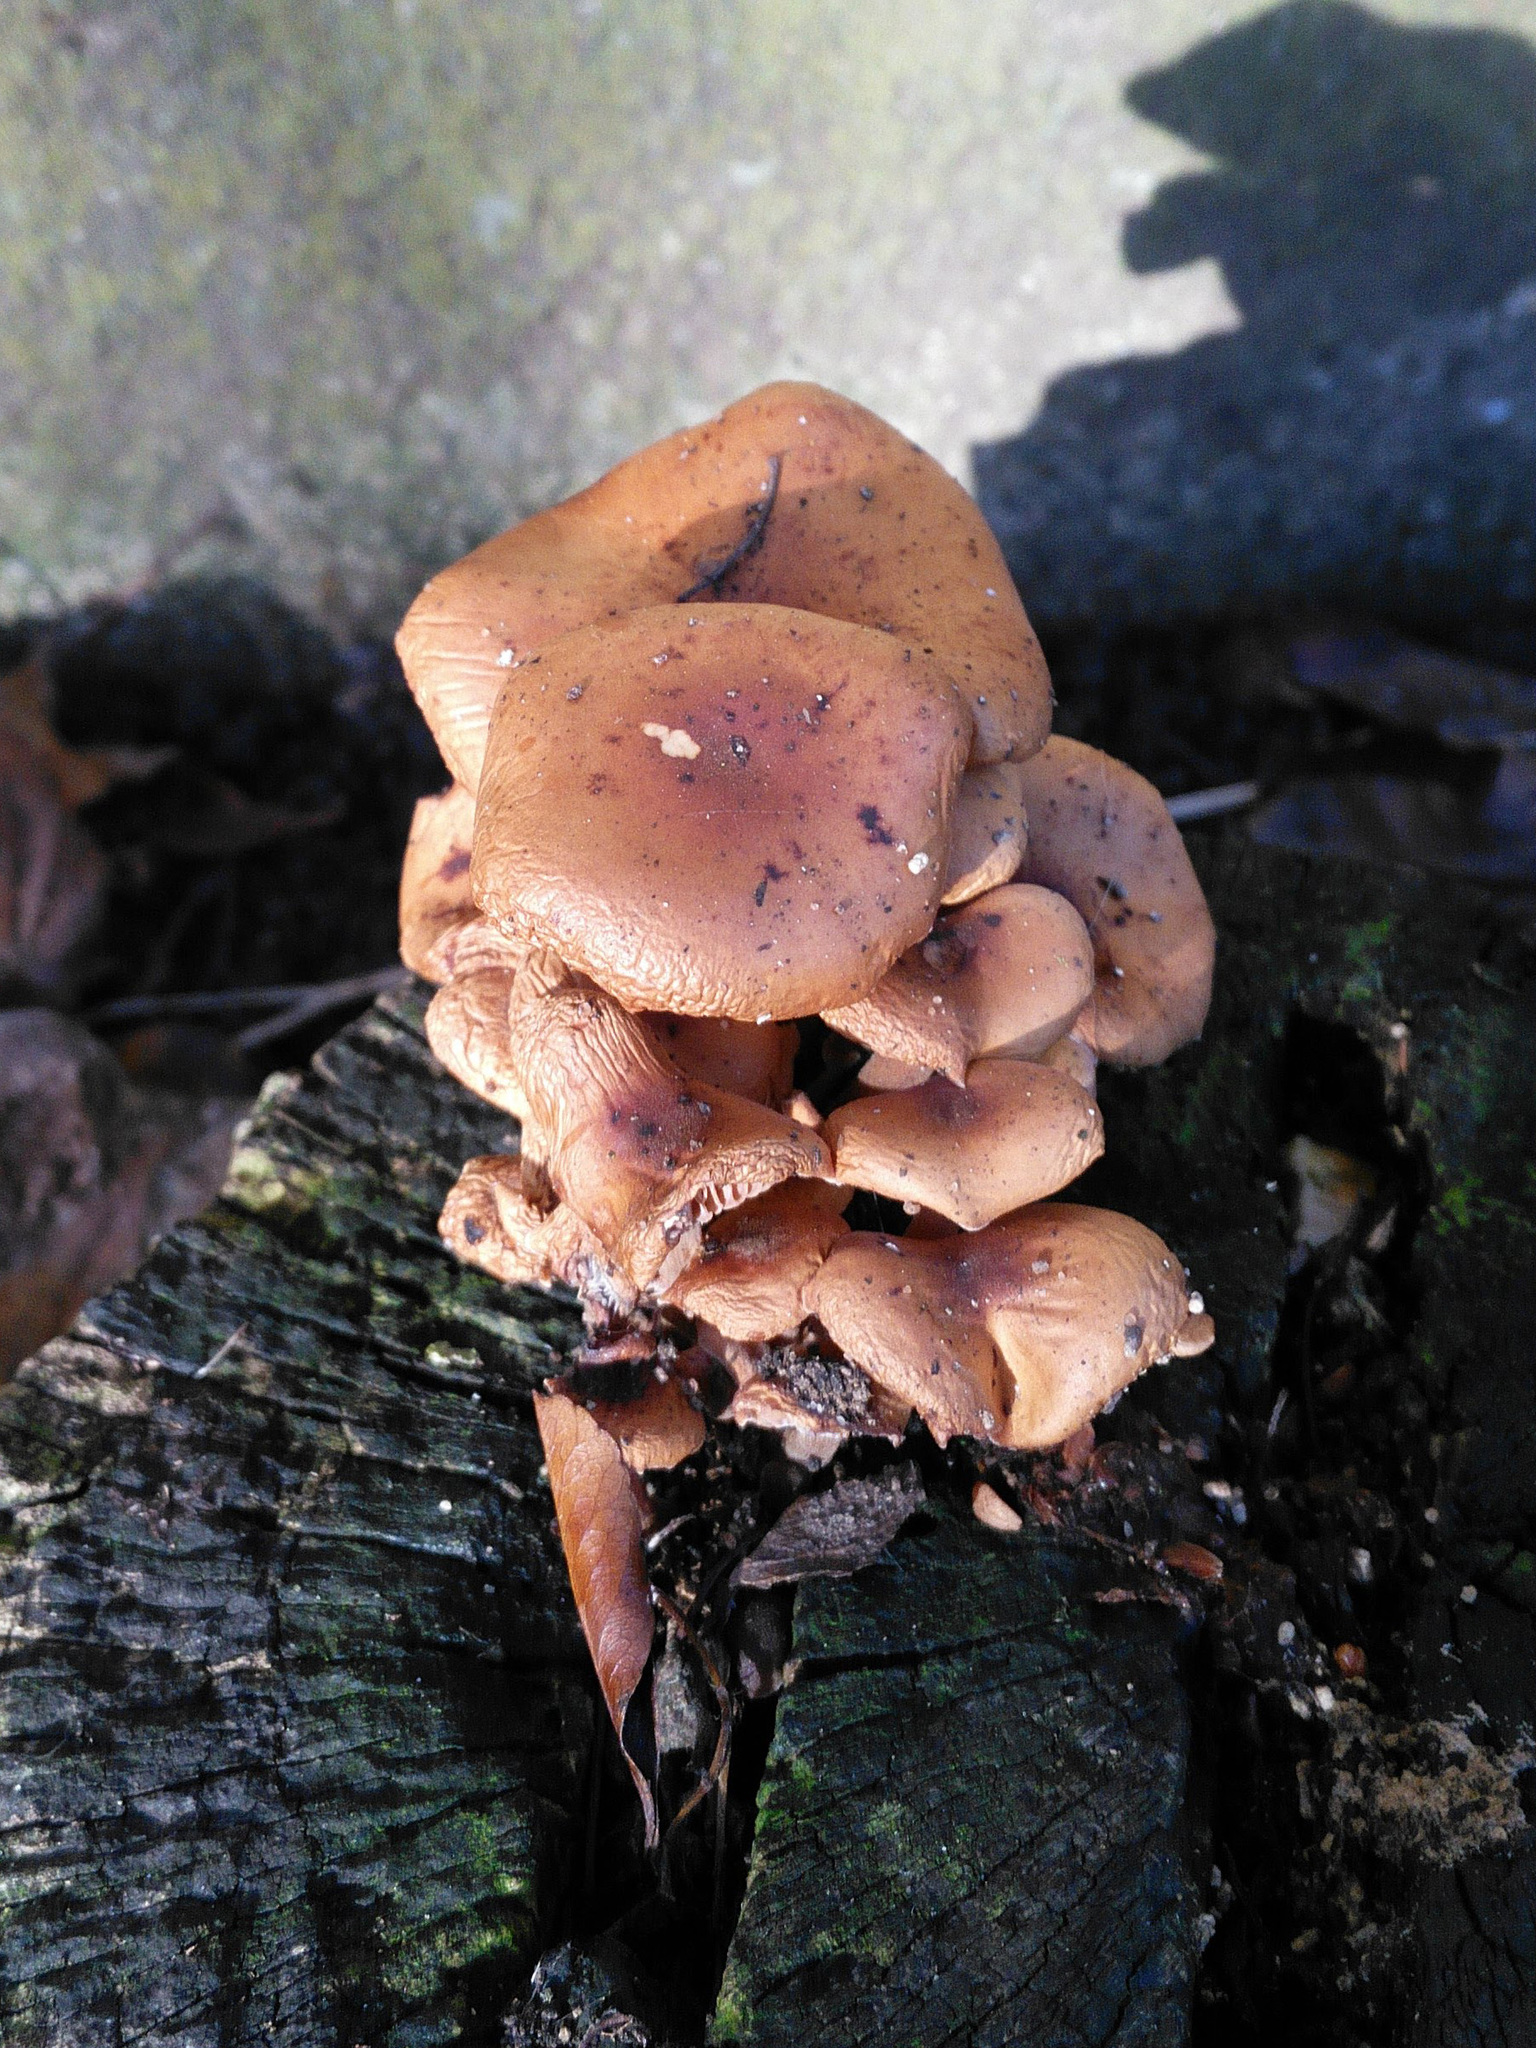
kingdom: Fungi
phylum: Basidiomycota
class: Agaricomycetes
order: Agaricales
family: Physalacriaceae
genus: Flammulina
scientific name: Flammulina
